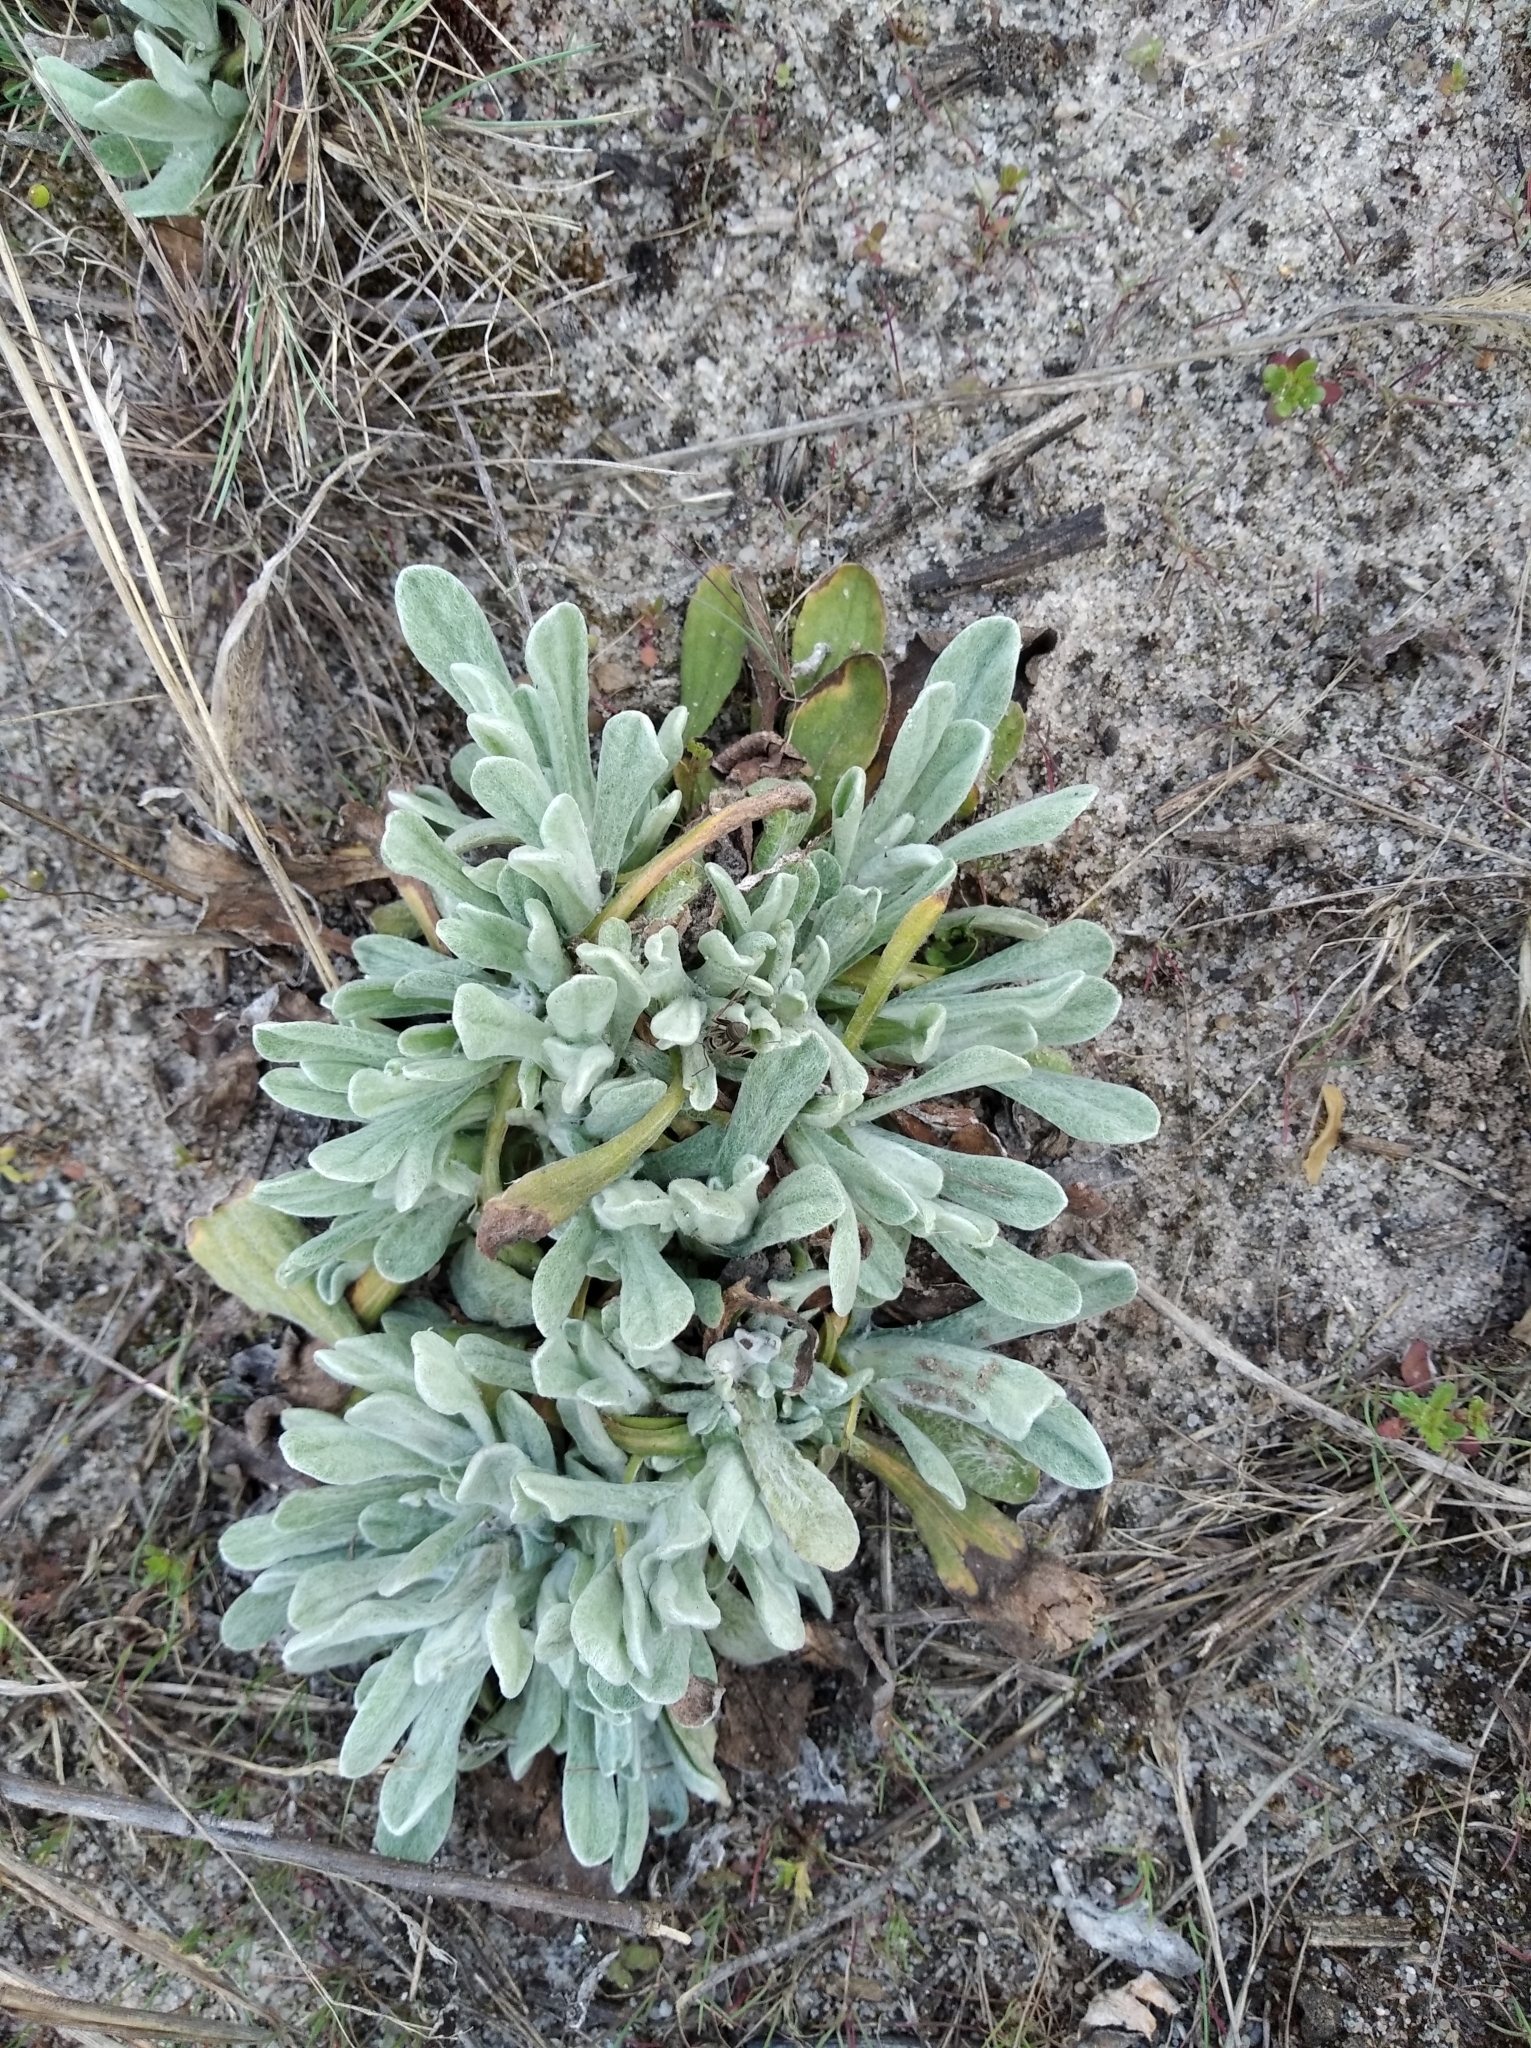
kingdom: Plantae
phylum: Tracheophyta
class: Magnoliopsida
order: Asterales
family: Asteraceae
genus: Helichrysum
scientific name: Helichrysum arenarium
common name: Strawflower
